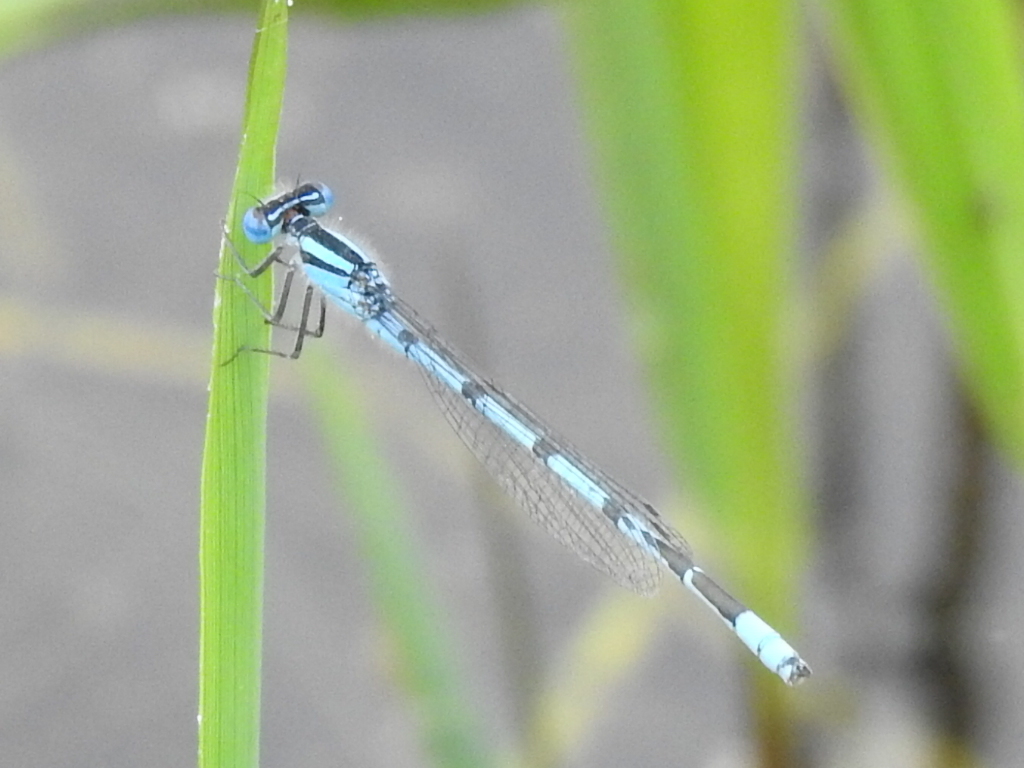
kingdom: Animalia
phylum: Arthropoda
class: Insecta
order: Odonata
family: Coenagrionidae
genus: Enallagma
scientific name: Enallagma doubledayi
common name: Atlantic bluet
